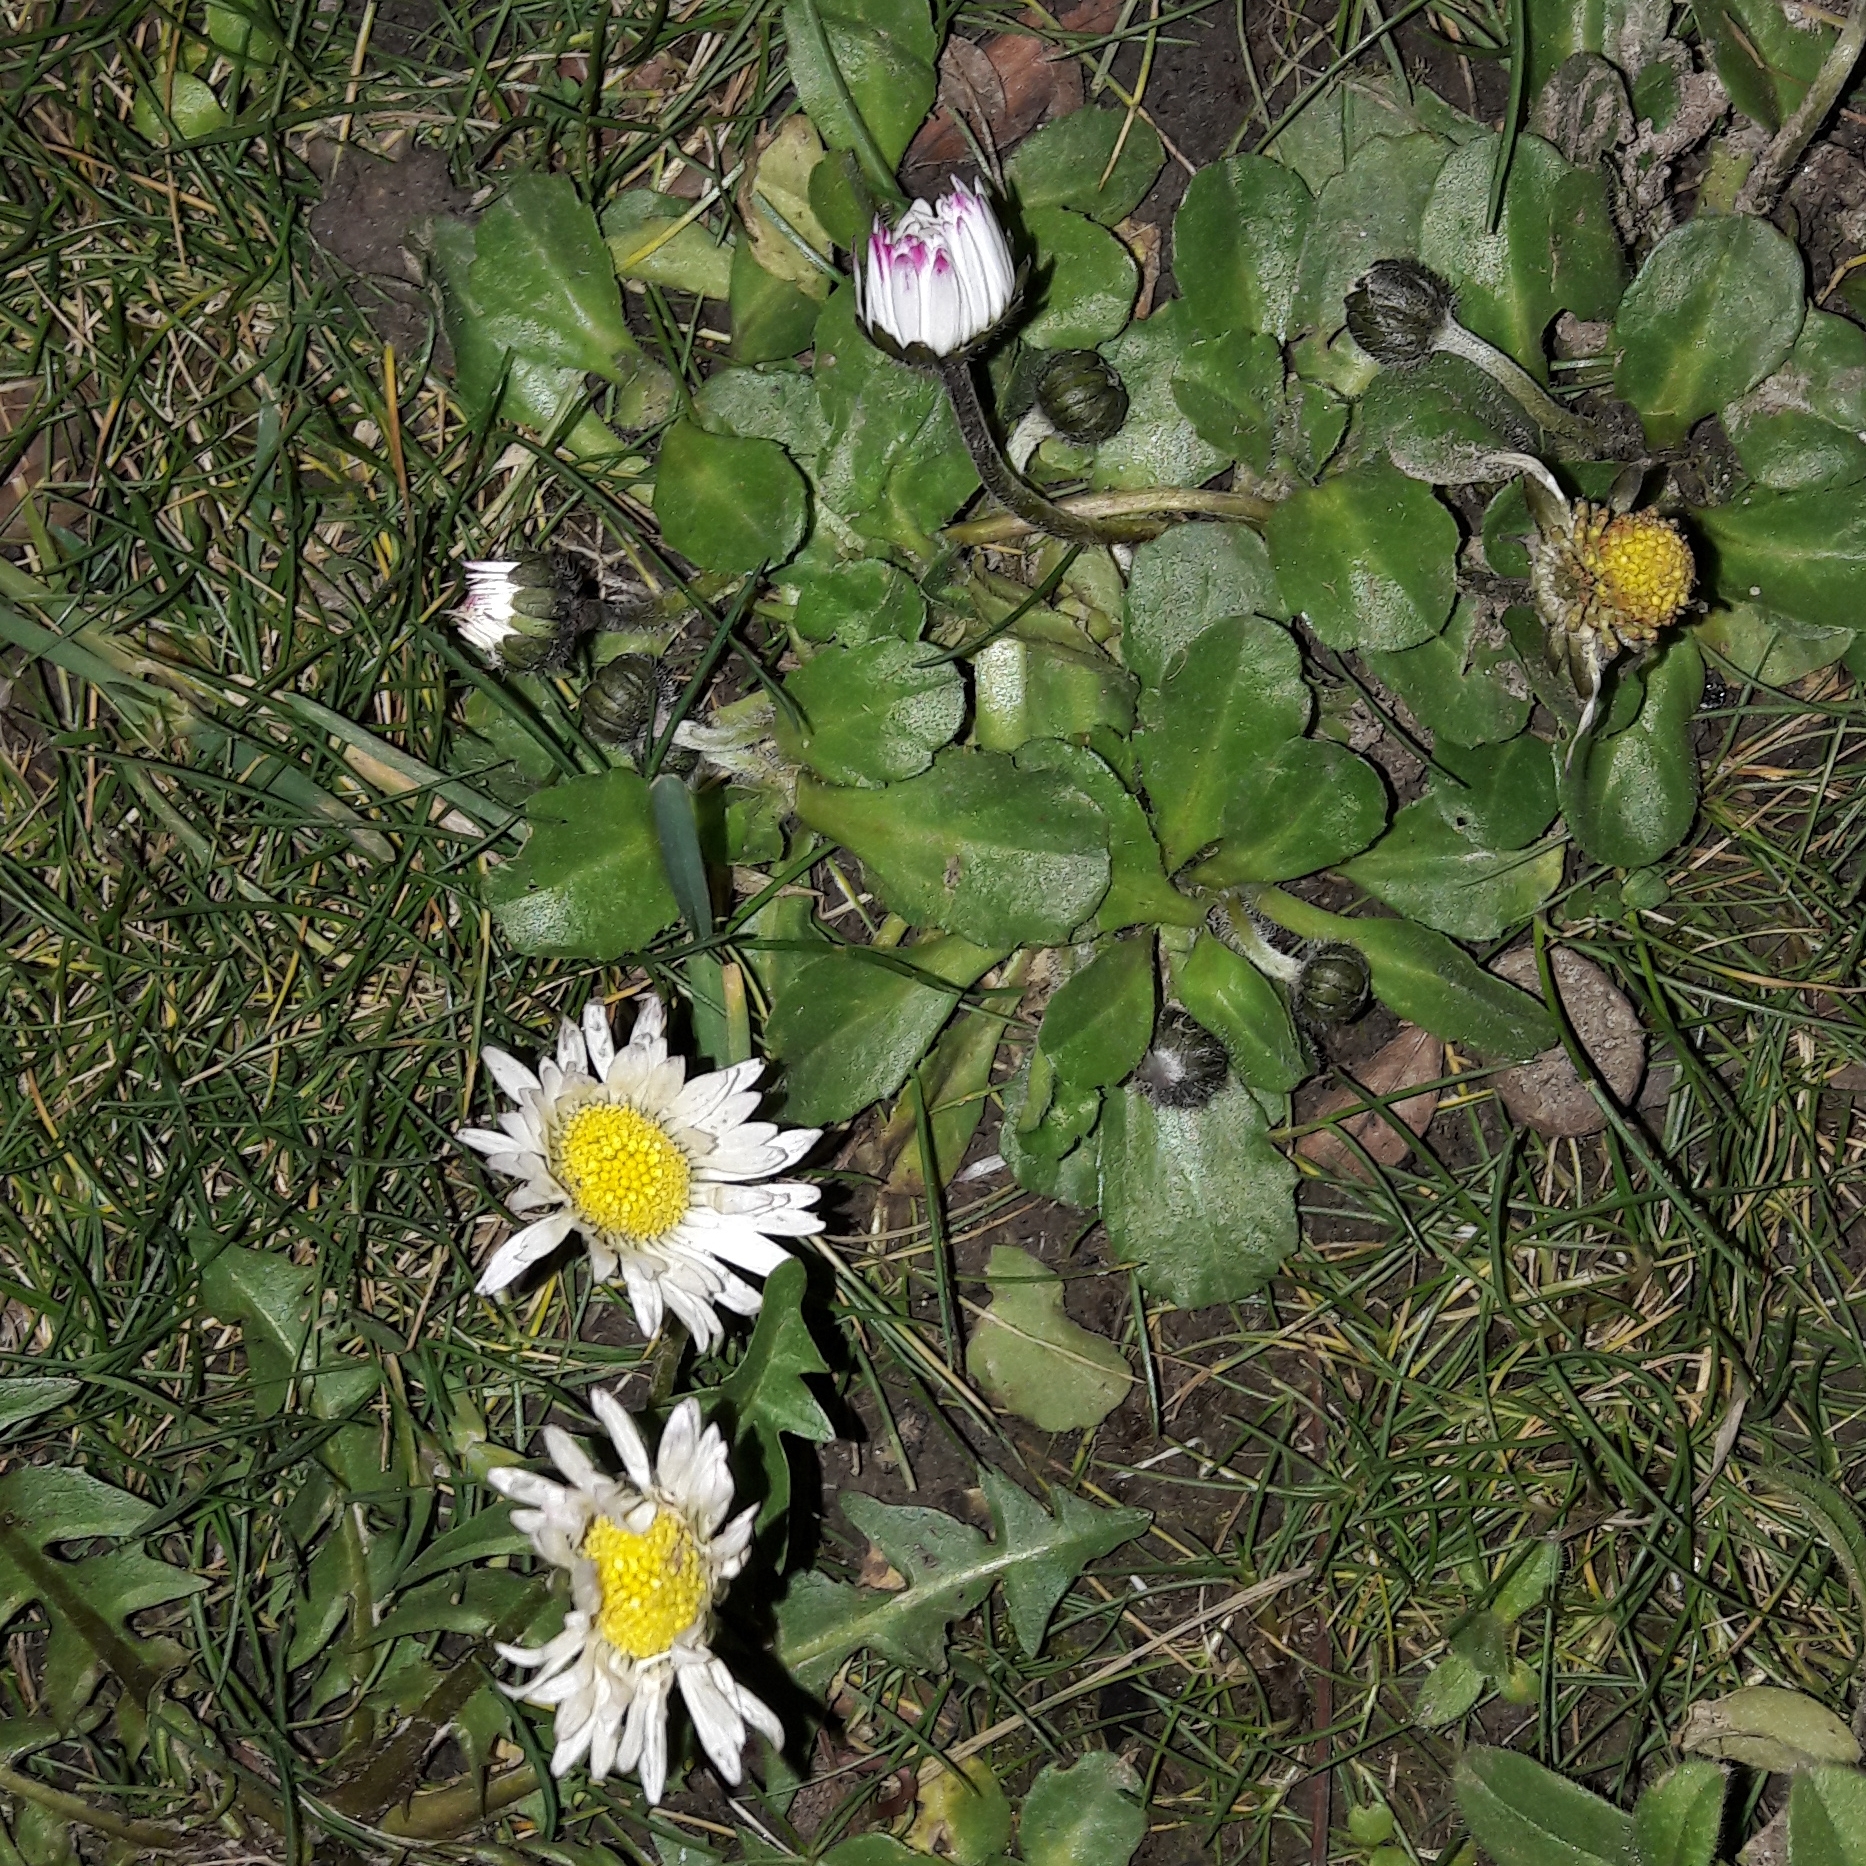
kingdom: Plantae
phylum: Tracheophyta
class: Magnoliopsida
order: Asterales
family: Asteraceae
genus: Bellis
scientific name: Bellis perennis
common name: Lawndaisy
